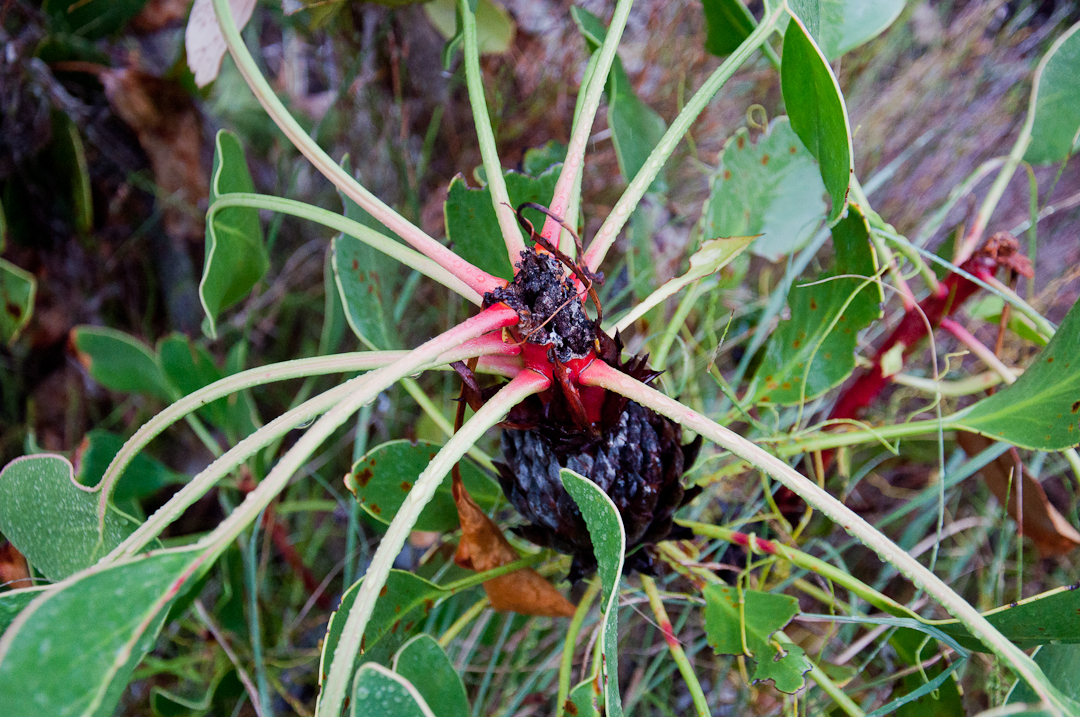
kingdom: Plantae
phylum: Tracheophyta
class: Magnoliopsida
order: Proteales
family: Proteaceae
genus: Protea
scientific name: Protea cynaroides
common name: King protea
